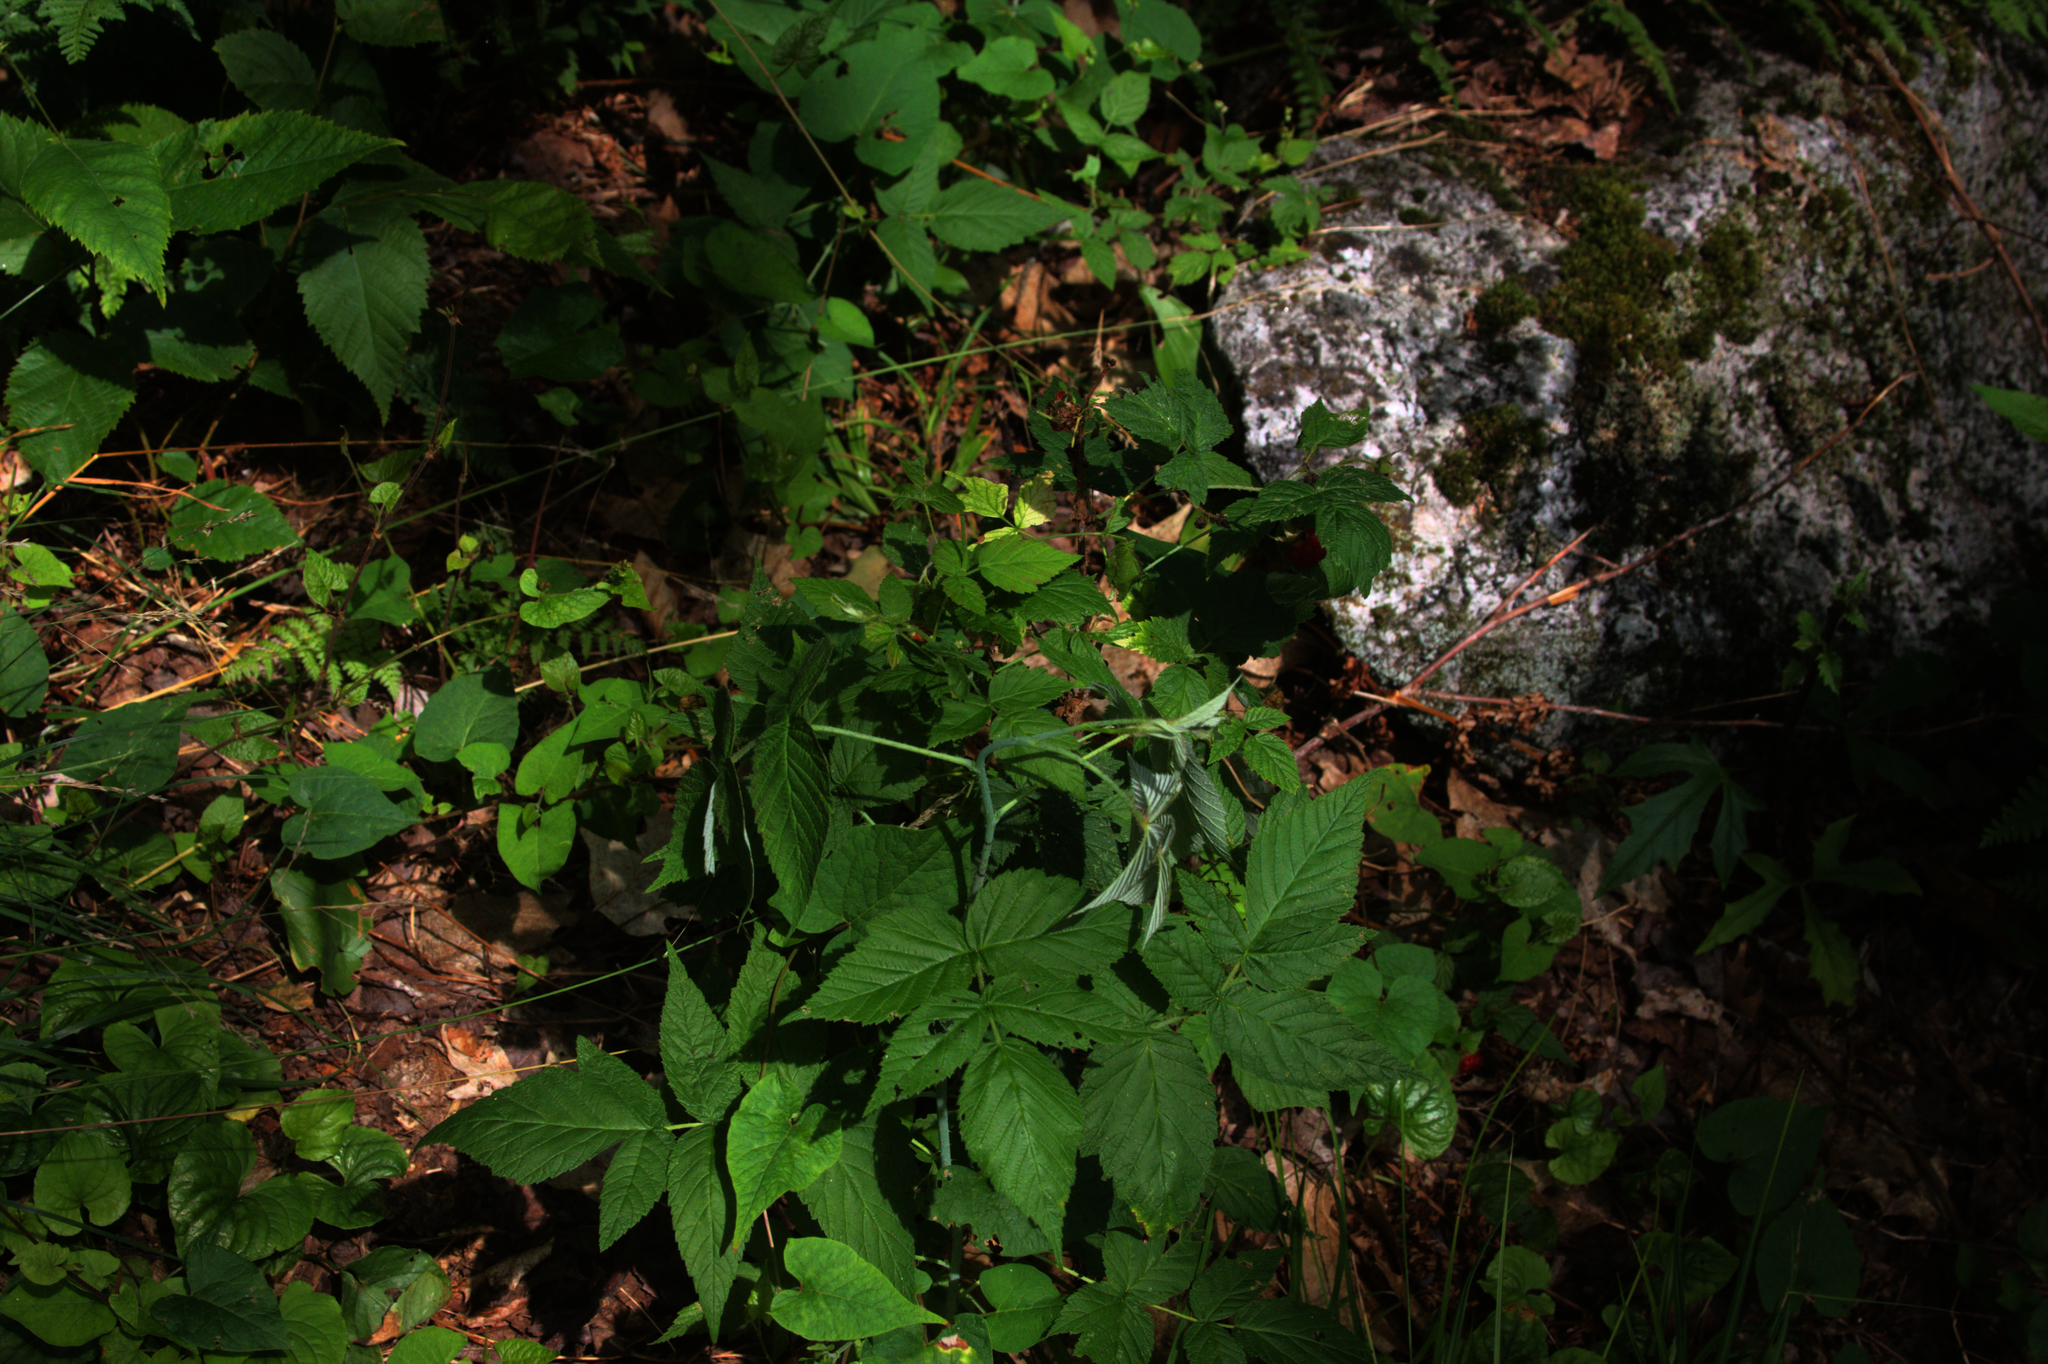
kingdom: Plantae
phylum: Tracheophyta
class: Magnoliopsida
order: Rosales
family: Rosaceae
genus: Rubus
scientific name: Rubus idaeus
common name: Raspberry
